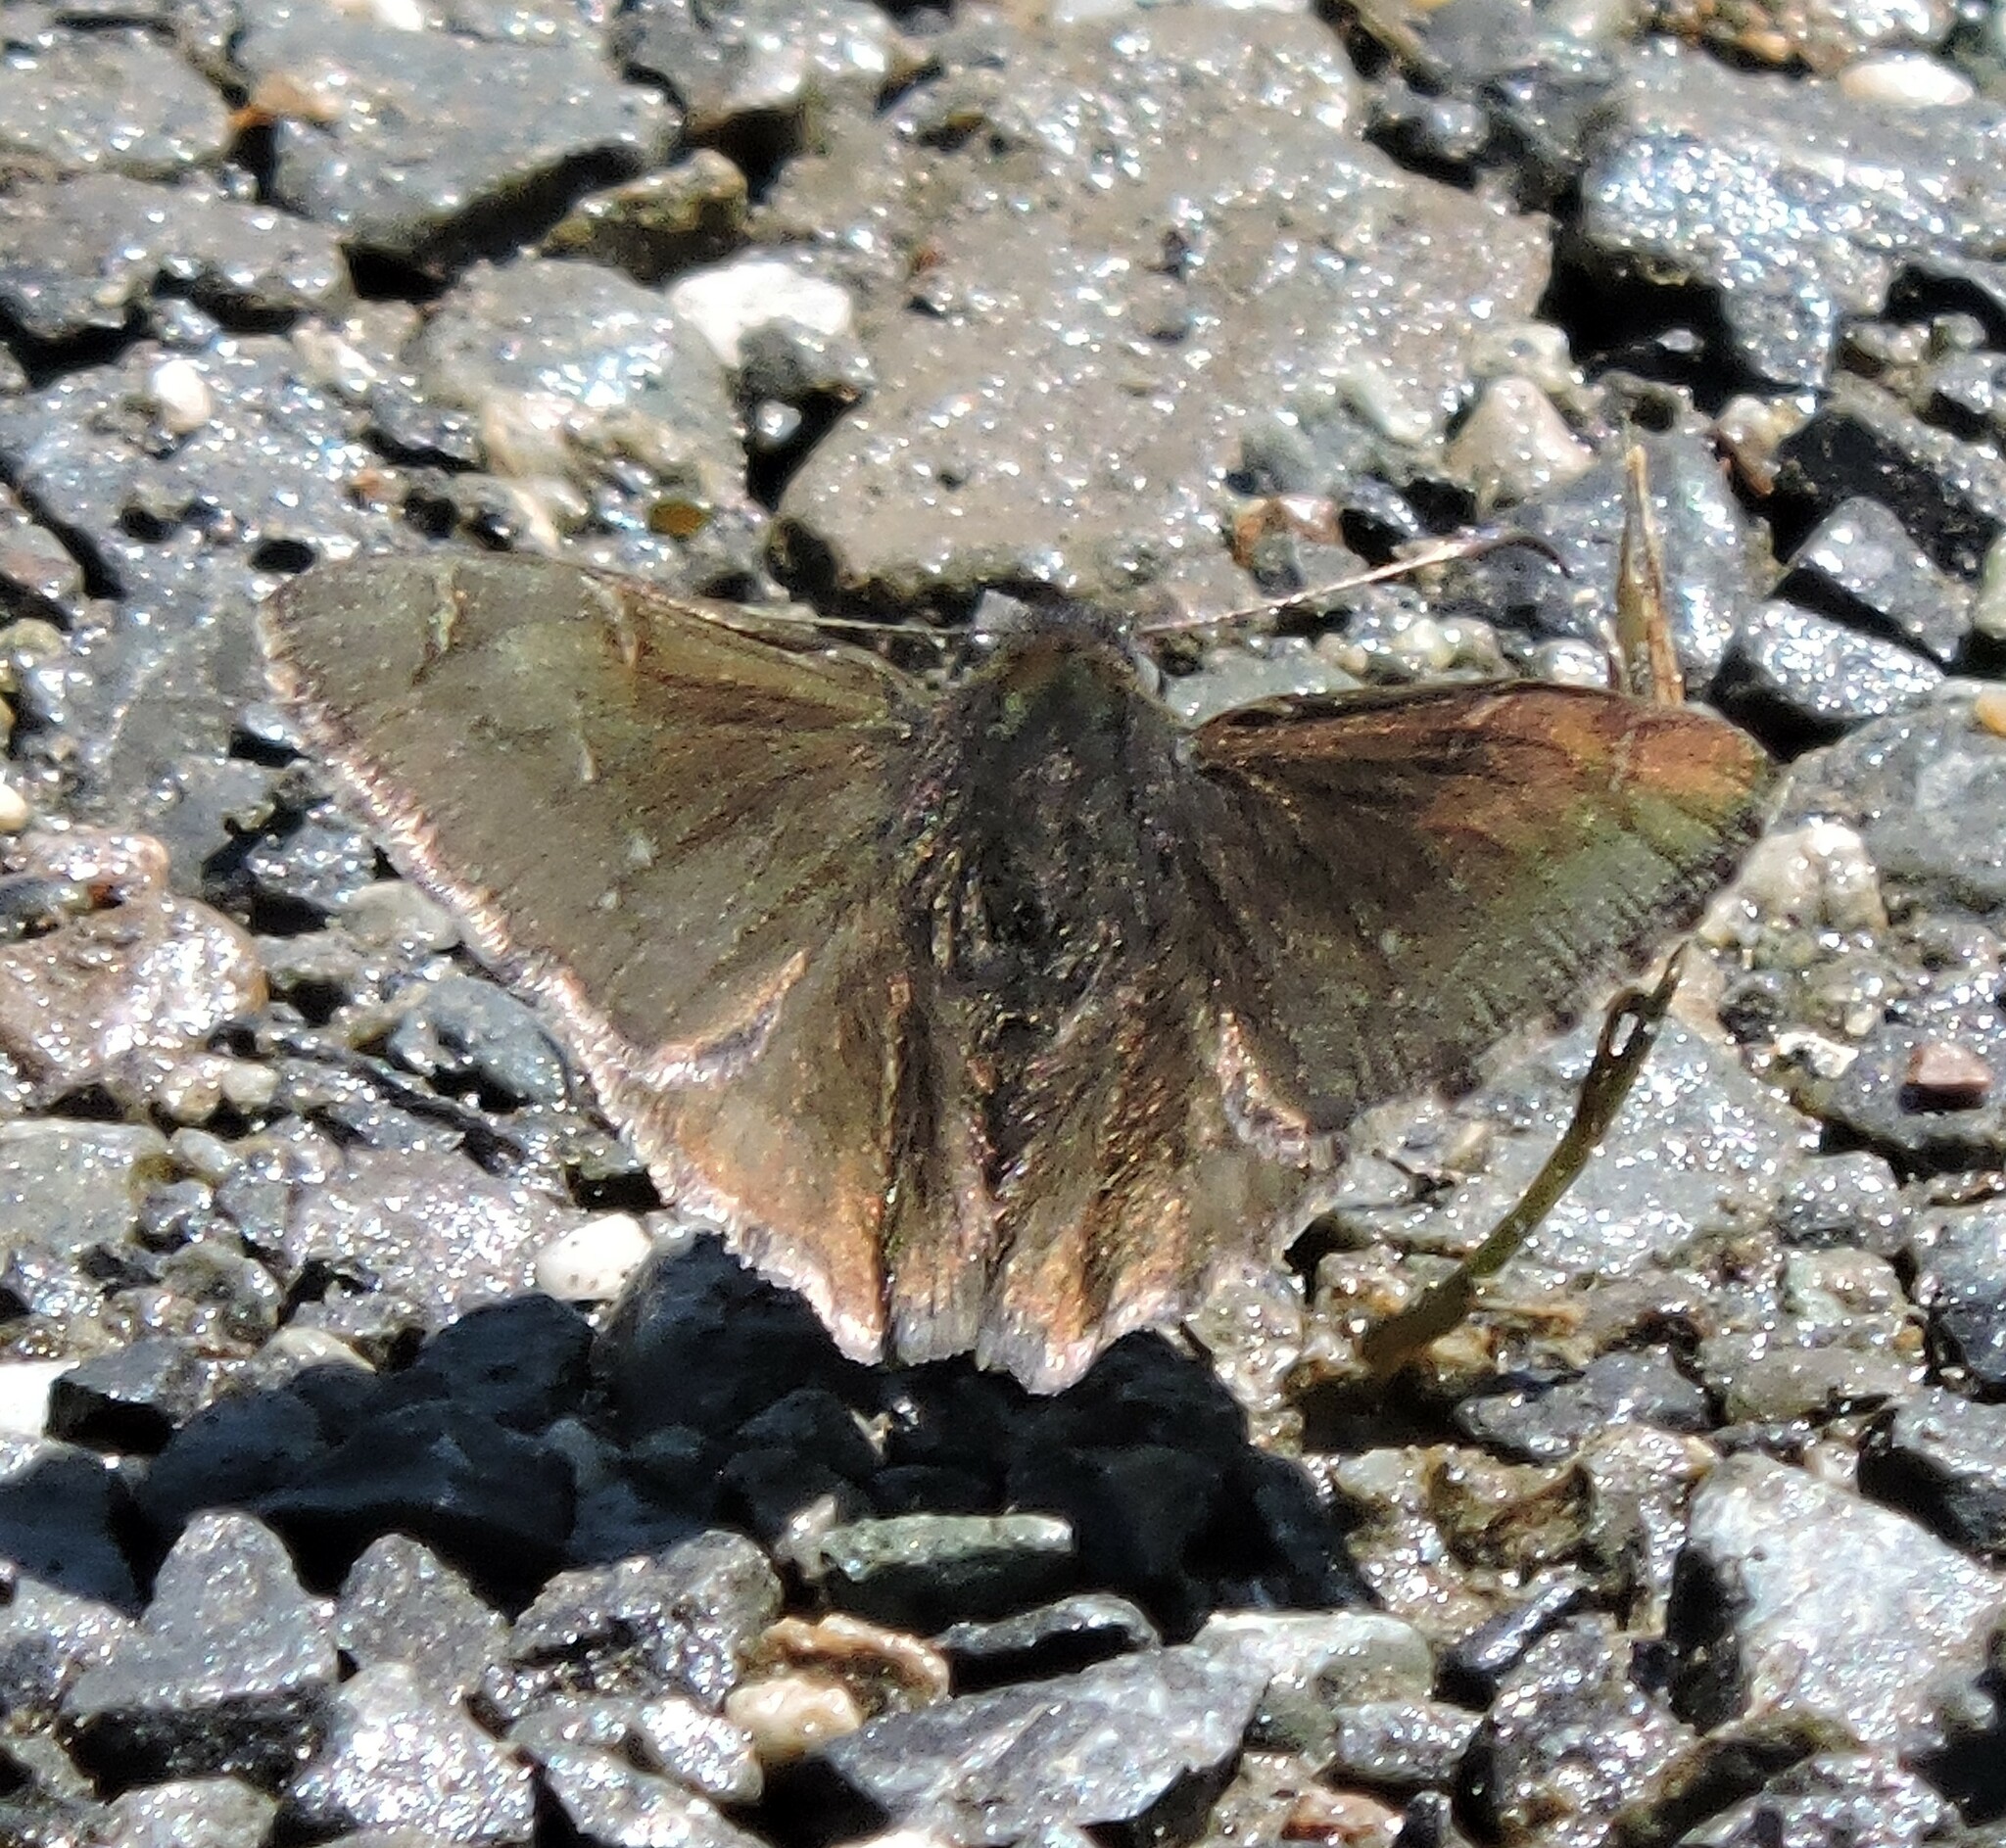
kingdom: Animalia
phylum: Arthropoda
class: Insecta
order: Lepidoptera
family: Hesperiidae
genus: Thorybes
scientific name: Thorybes pylades
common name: Northern cloudywing
